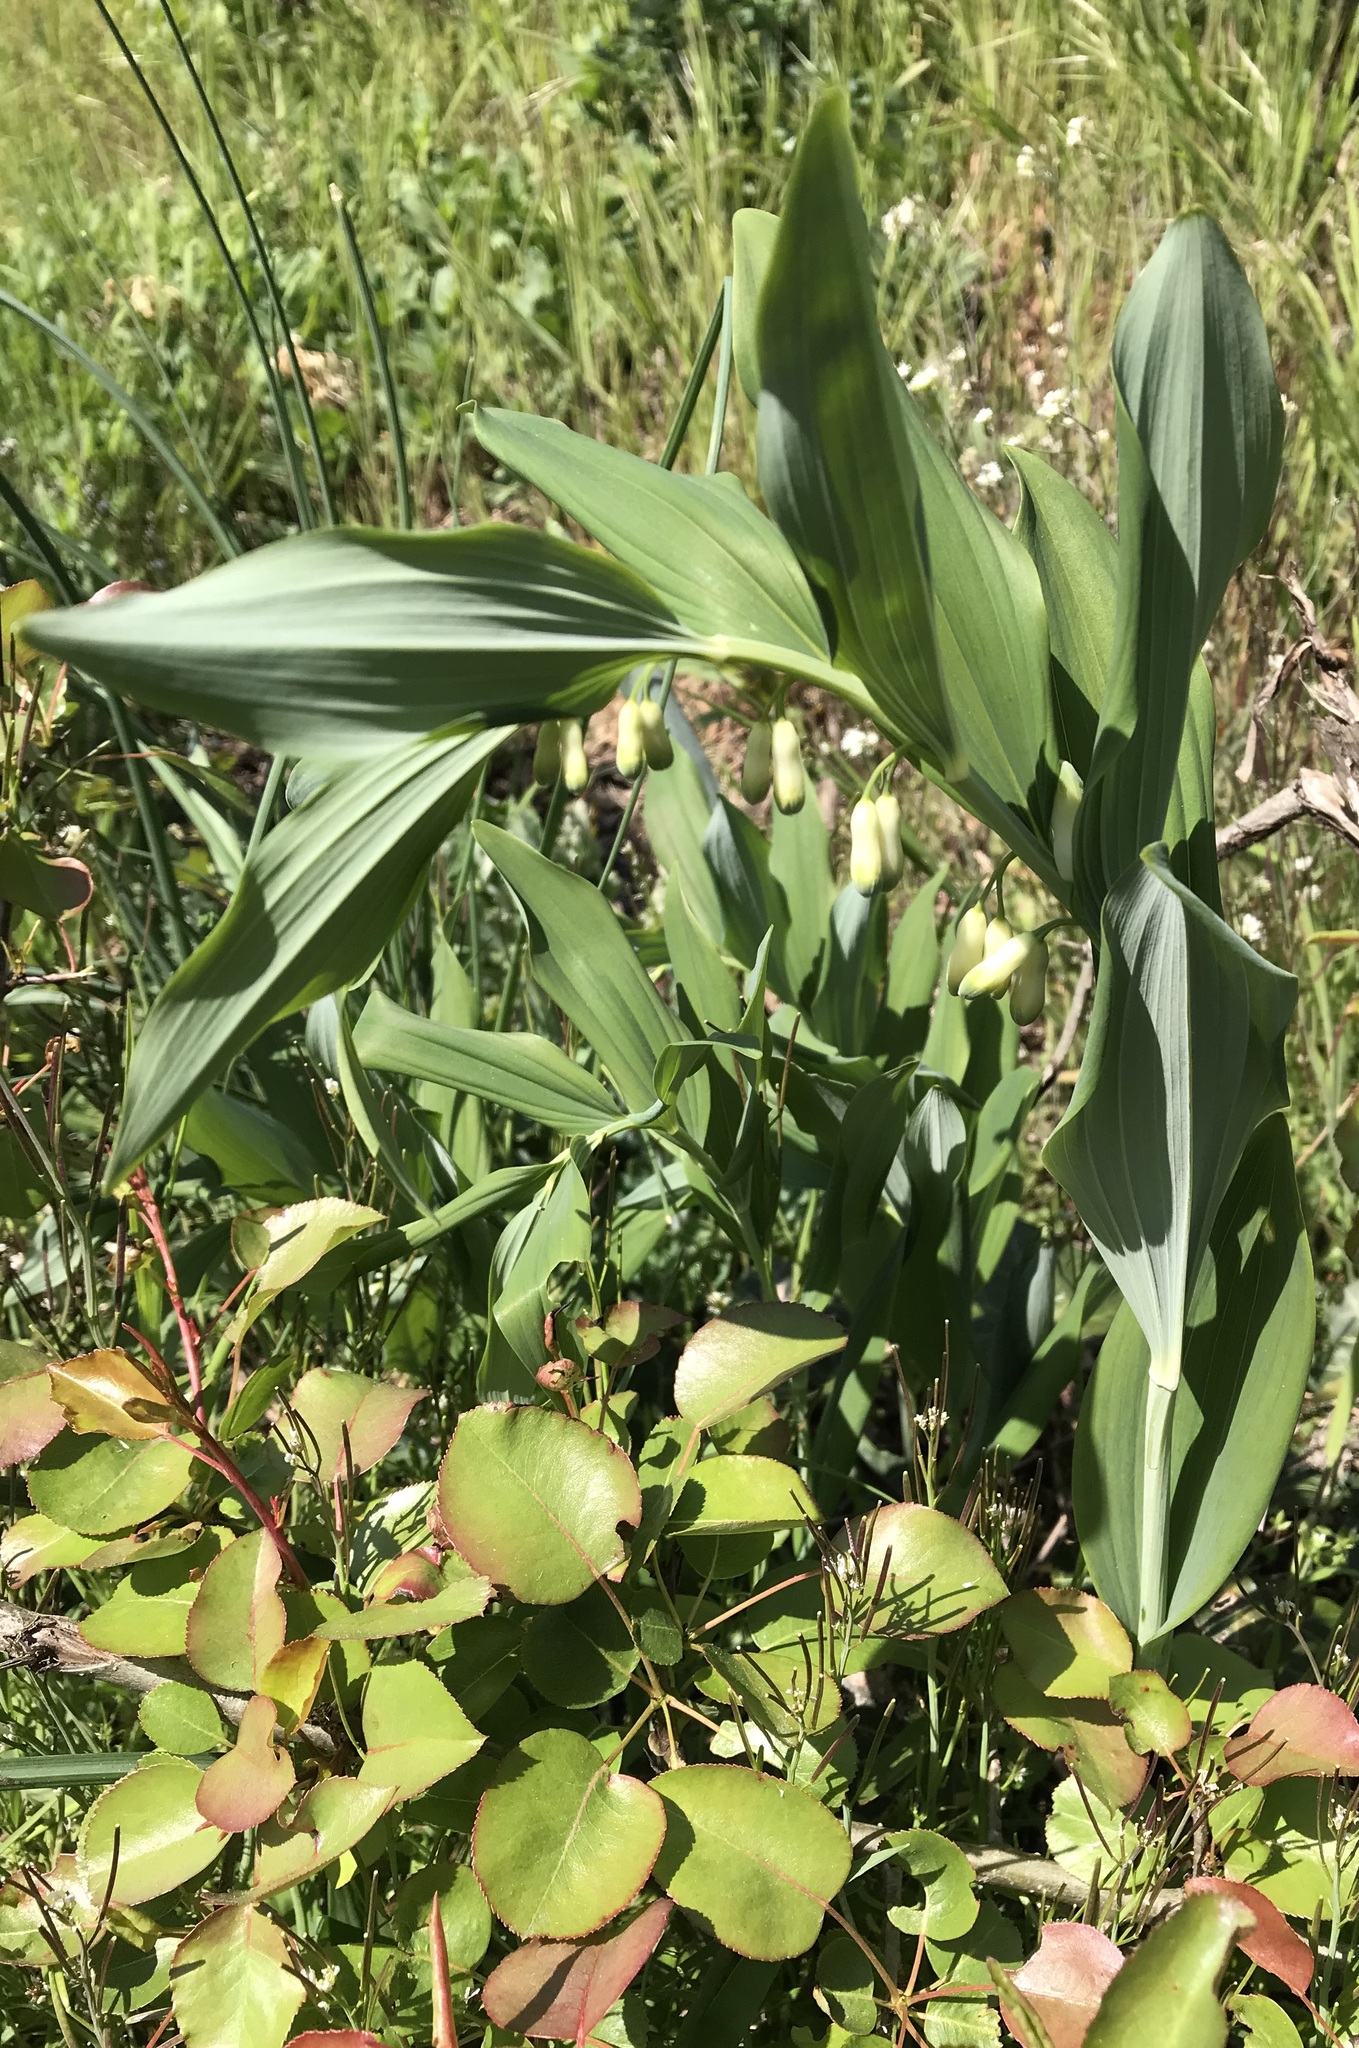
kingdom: Plantae
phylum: Tracheophyta
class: Liliopsida
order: Asparagales
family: Asparagaceae
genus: Polygonatum
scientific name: Polygonatum hybridum
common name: Garden solomon's-seal
